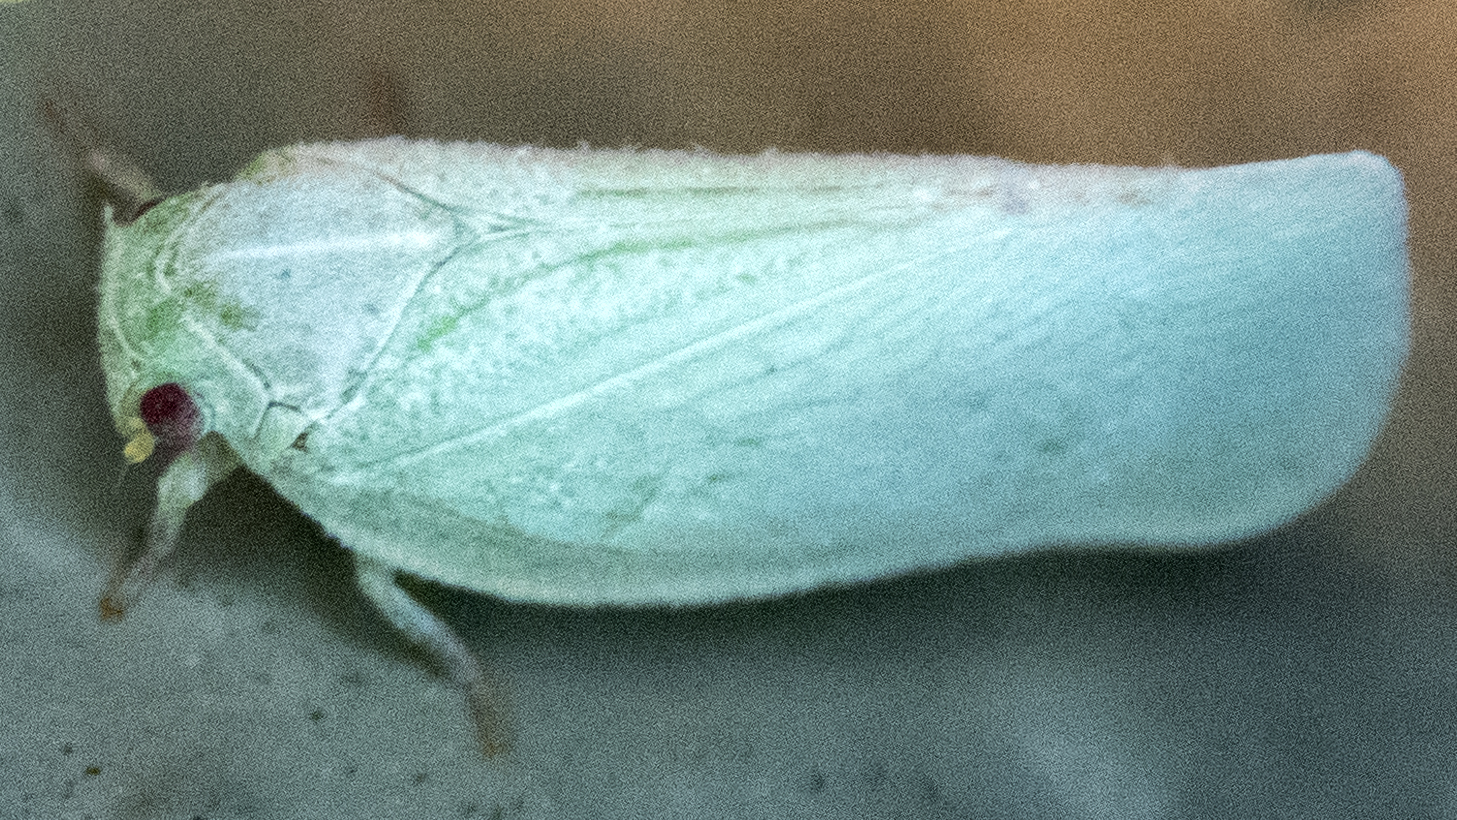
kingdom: Animalia
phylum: Arthropoda
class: Insecta
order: Hemiptera
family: Flatidae
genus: Flatormenis
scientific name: Flatormenis proxima
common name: Northern flatid planthopper
